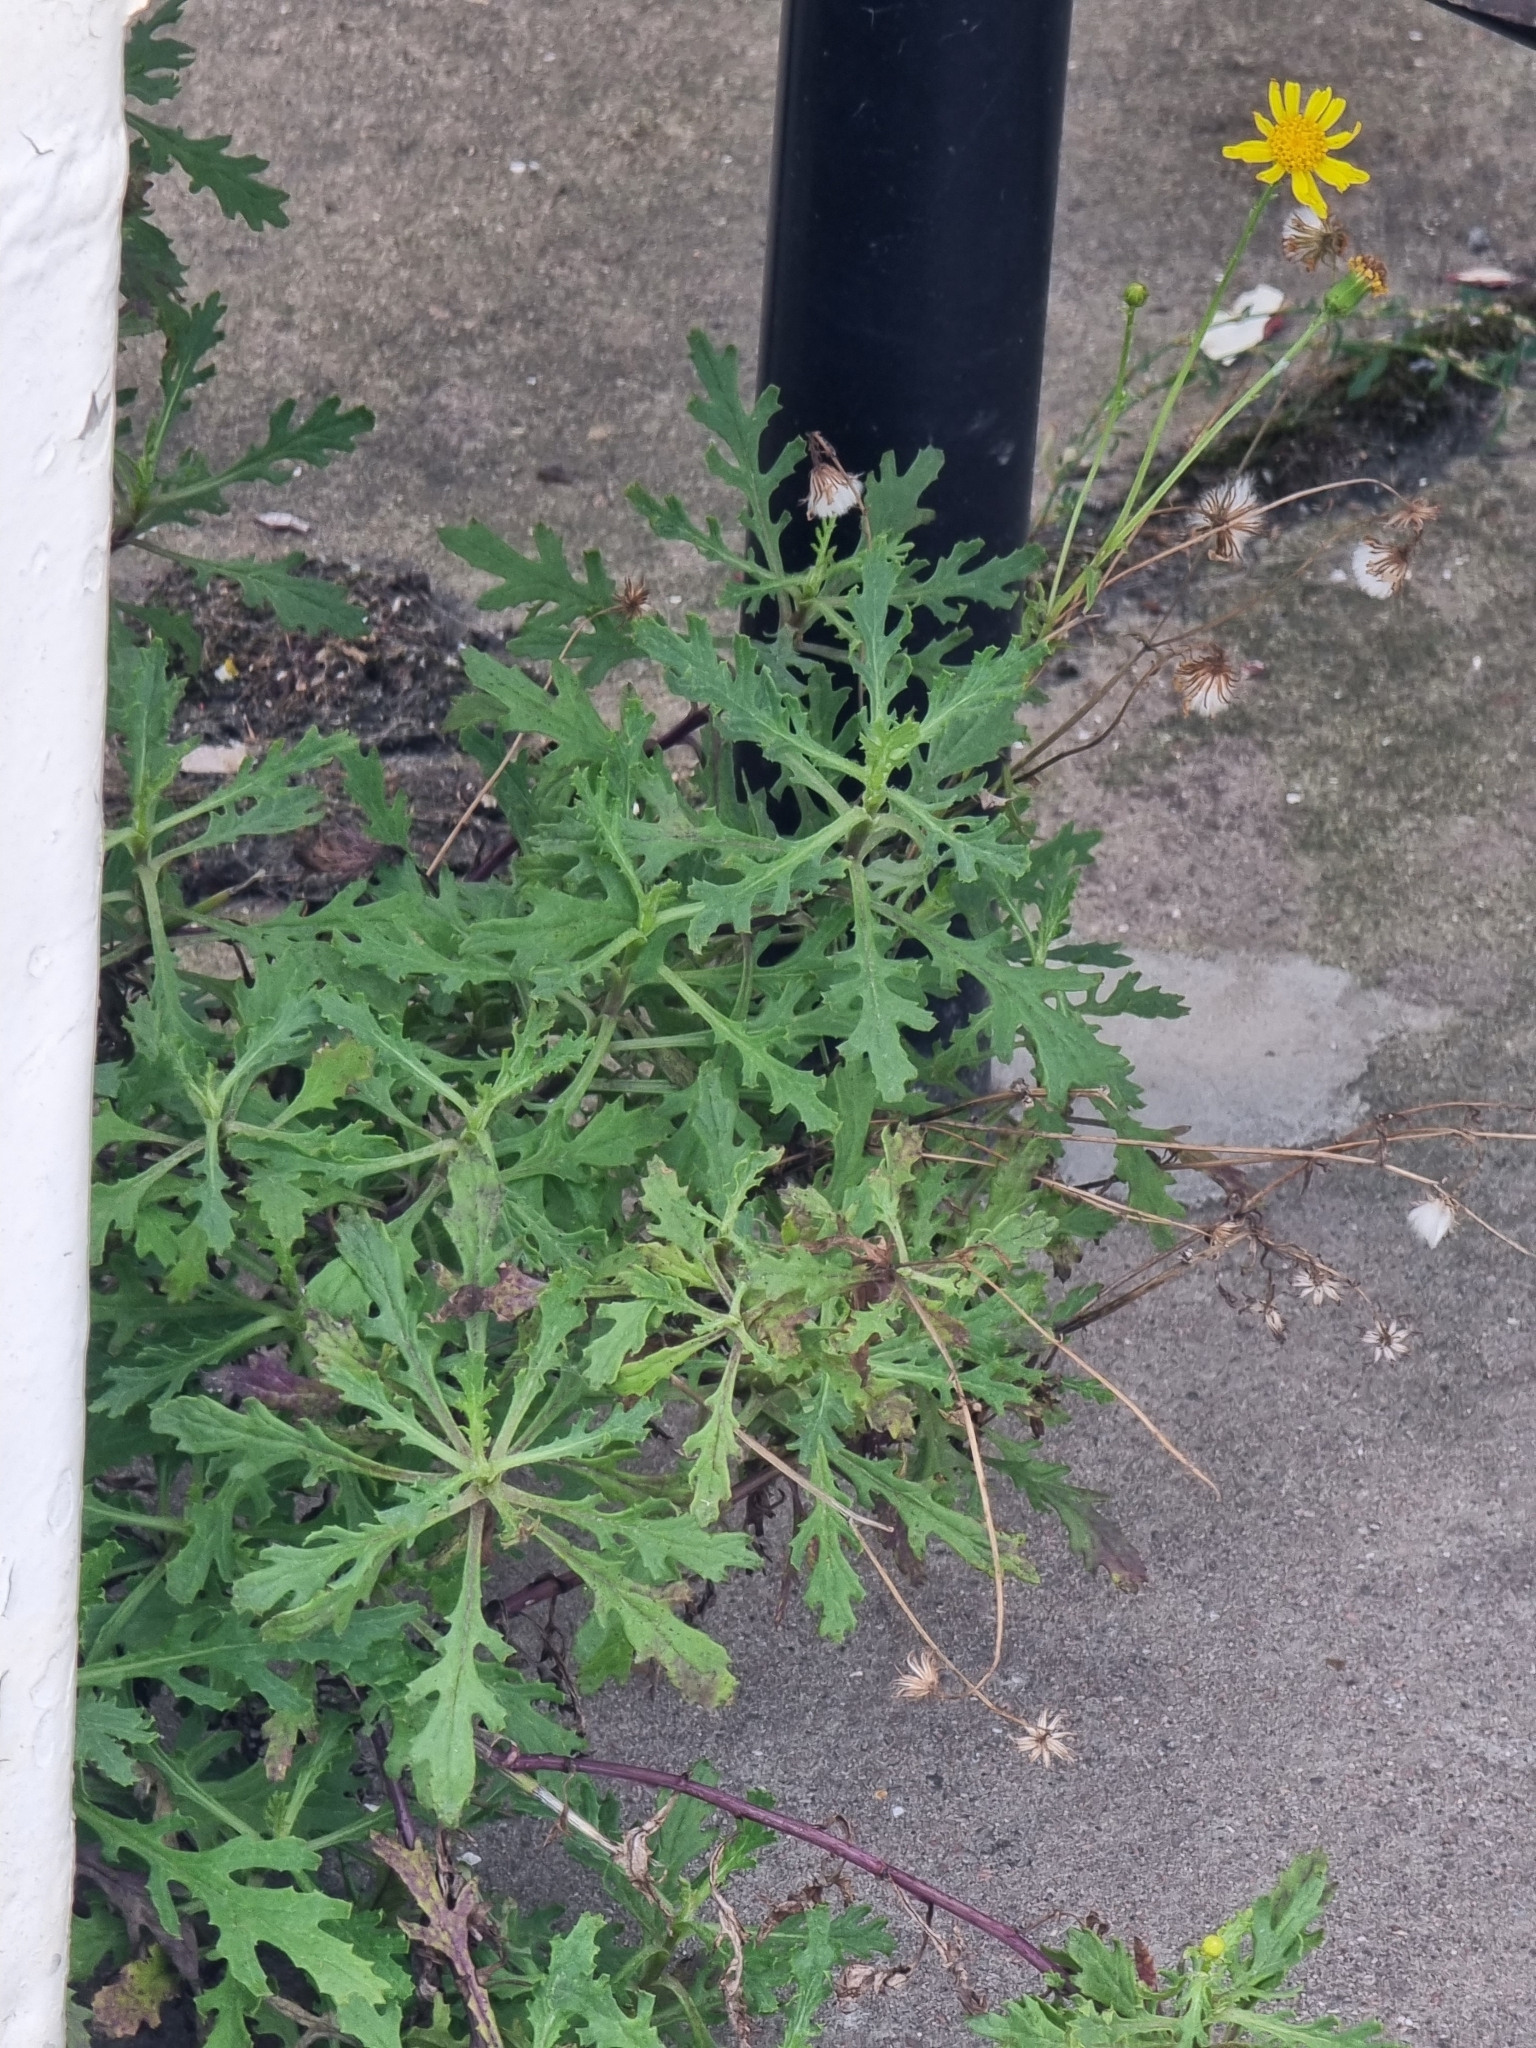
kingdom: Plantae
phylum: Tracheophyta
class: Magnoliopsida
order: Asterales
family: Asteraceae
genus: Senecio
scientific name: Senecio squalidus
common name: Oxford ragwort
